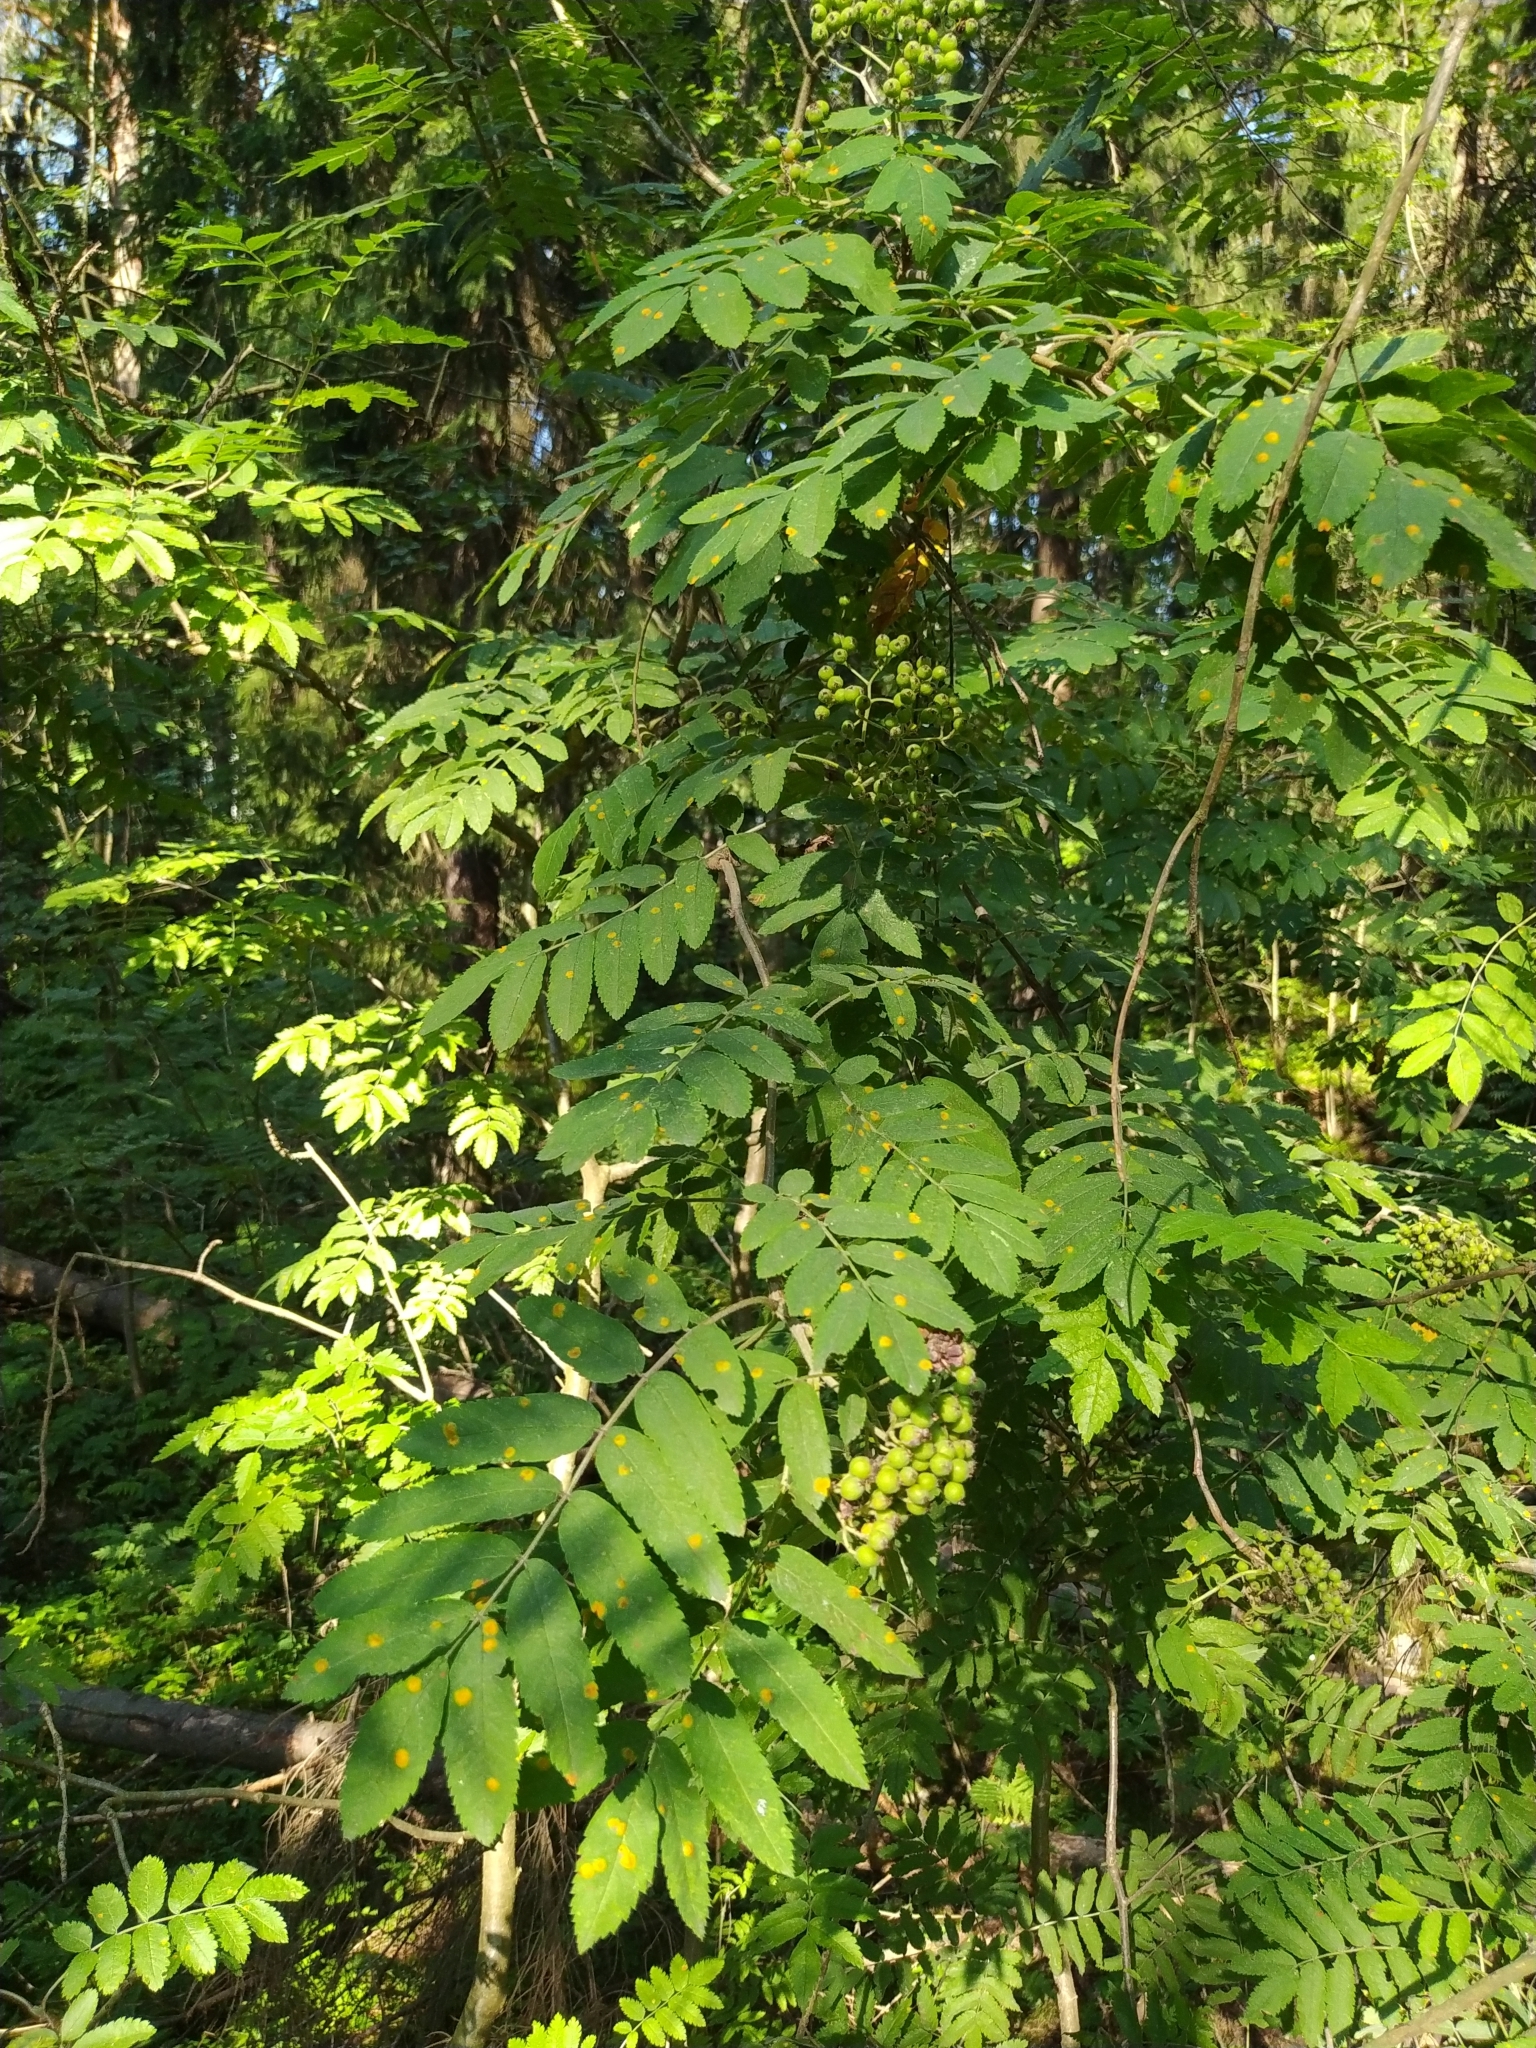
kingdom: Fungi
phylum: Basidiomycota
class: Pucciniomycetes
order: Pucciniales
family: Gymnosporangiaceae
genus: Gymnosporangium
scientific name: Gymnosporangium cornutum
